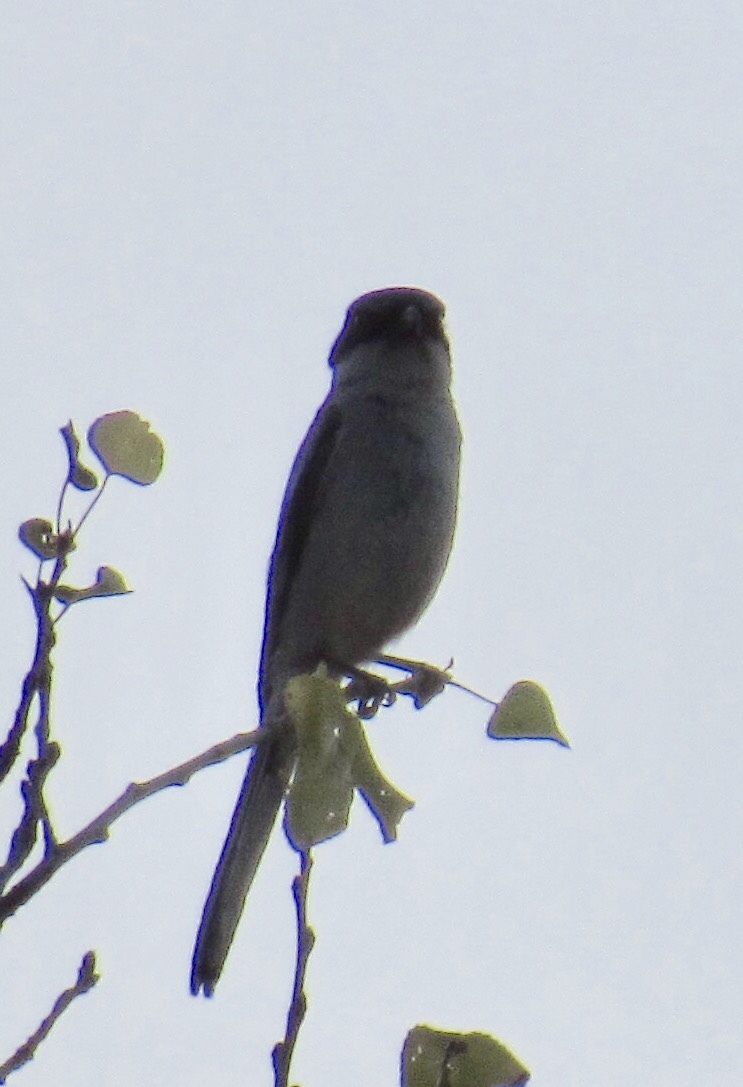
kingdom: Animalia
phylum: Chordata
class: Aves
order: Passeriformes
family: Laniidae
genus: Lanius
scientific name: Lanius ludovicianus
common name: Loggerhead shrike
